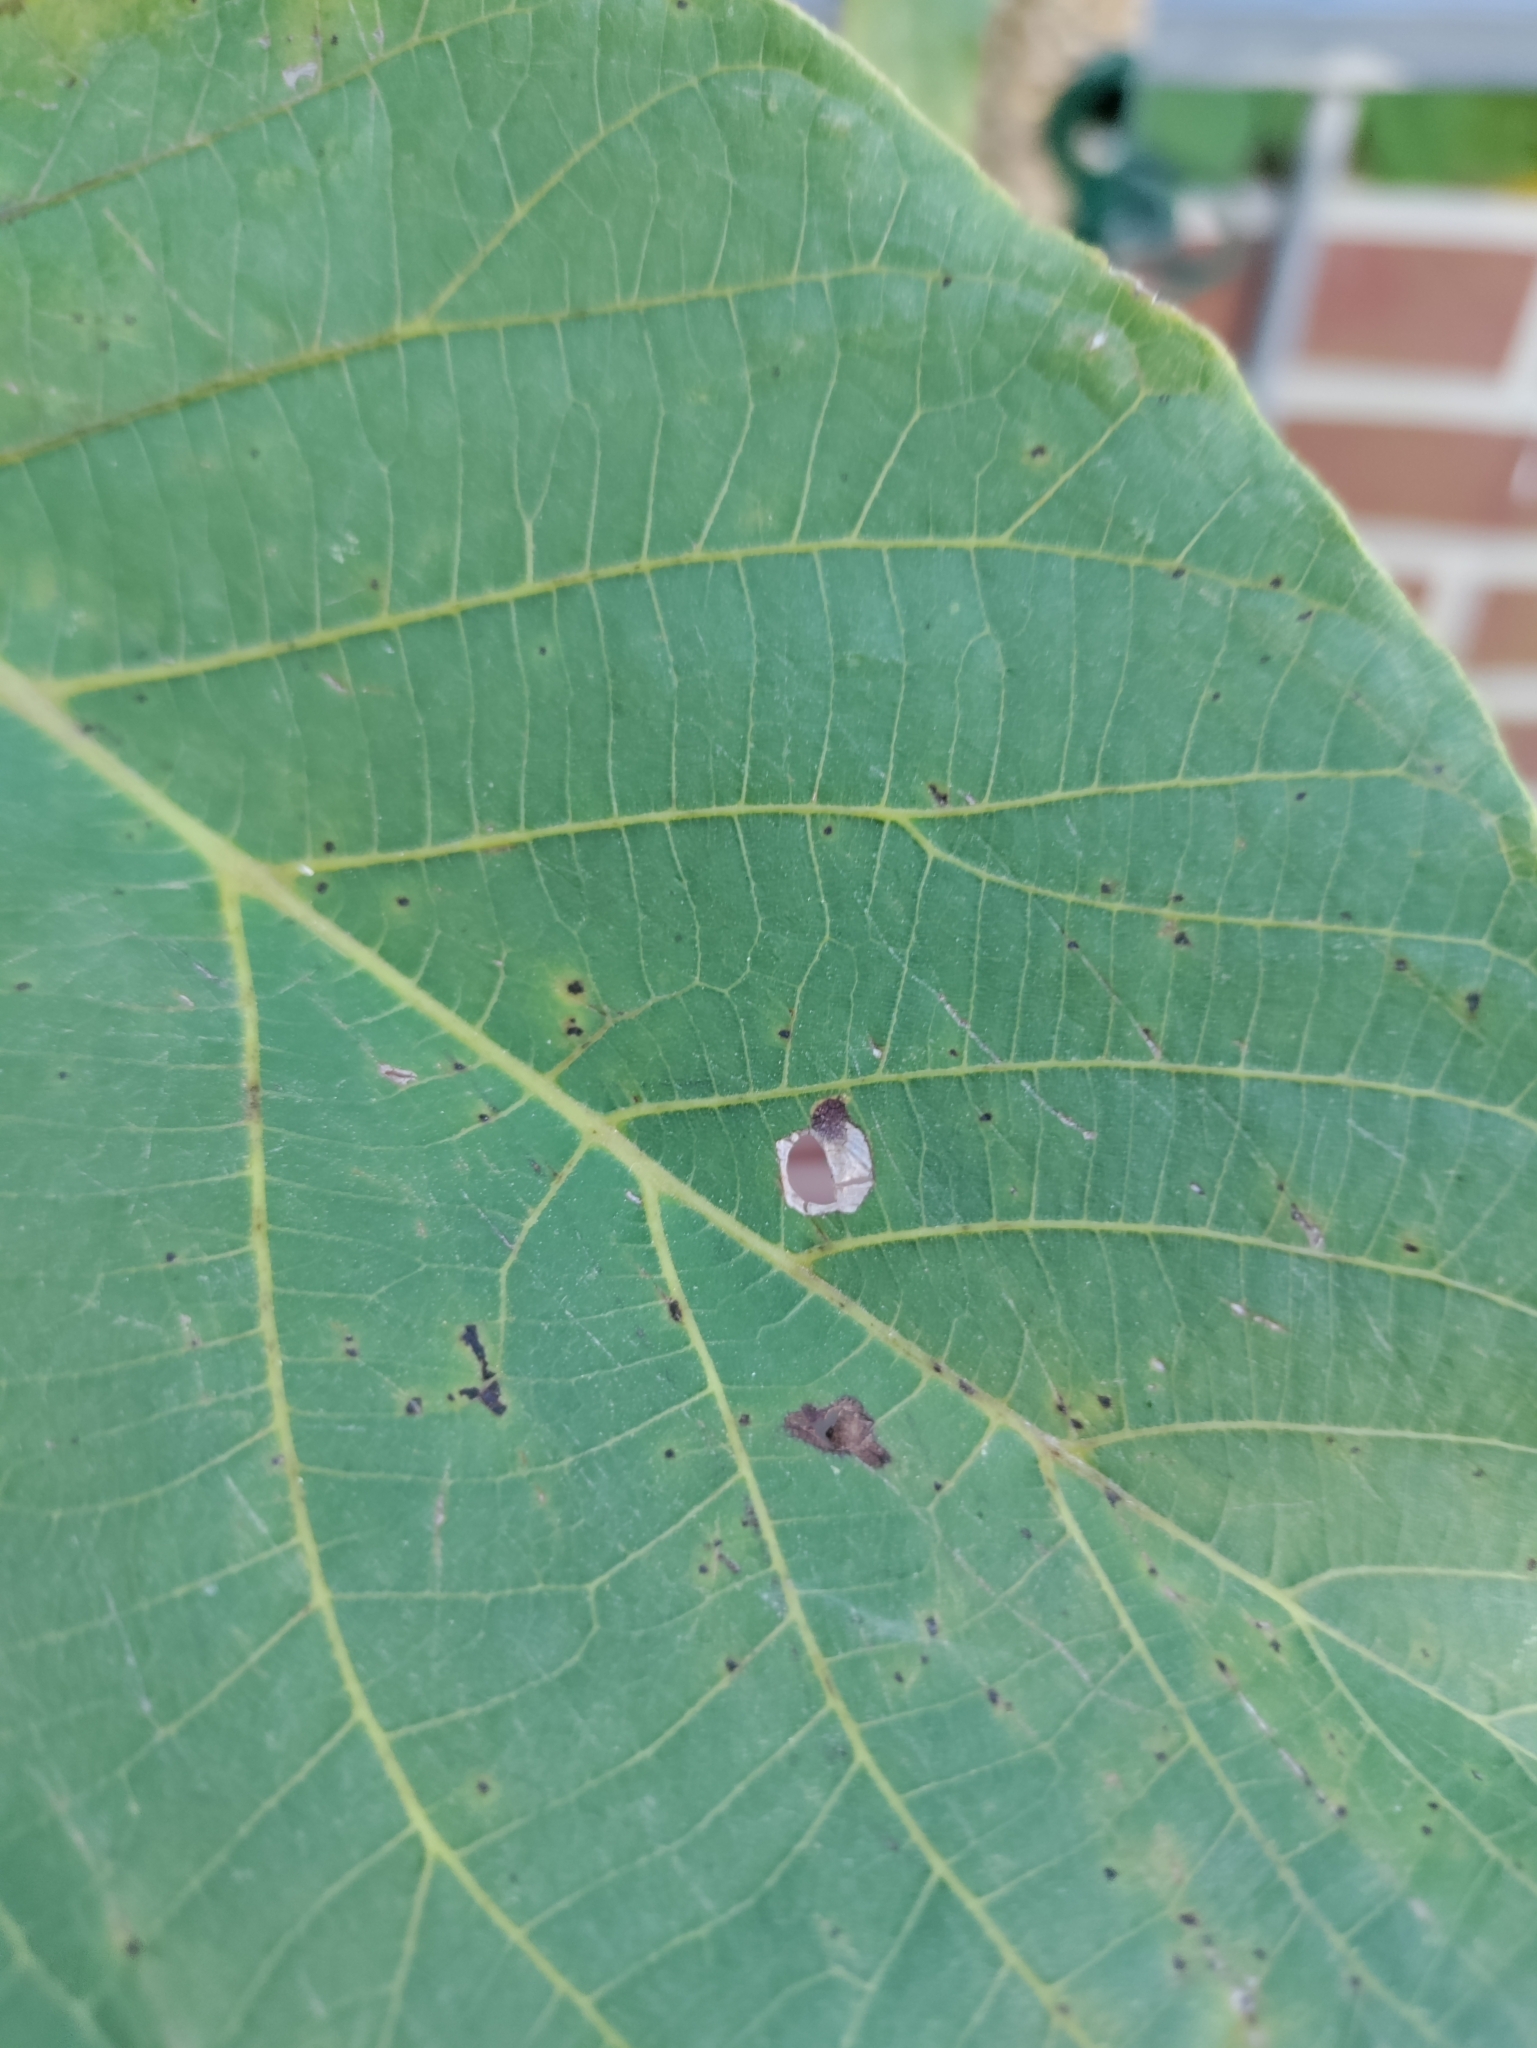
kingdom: Animalia
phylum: Arthropoda
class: Insecta
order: Lepidoptera
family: Heliozelidae
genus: Coptodisca
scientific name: Coptodisca lucifluella
